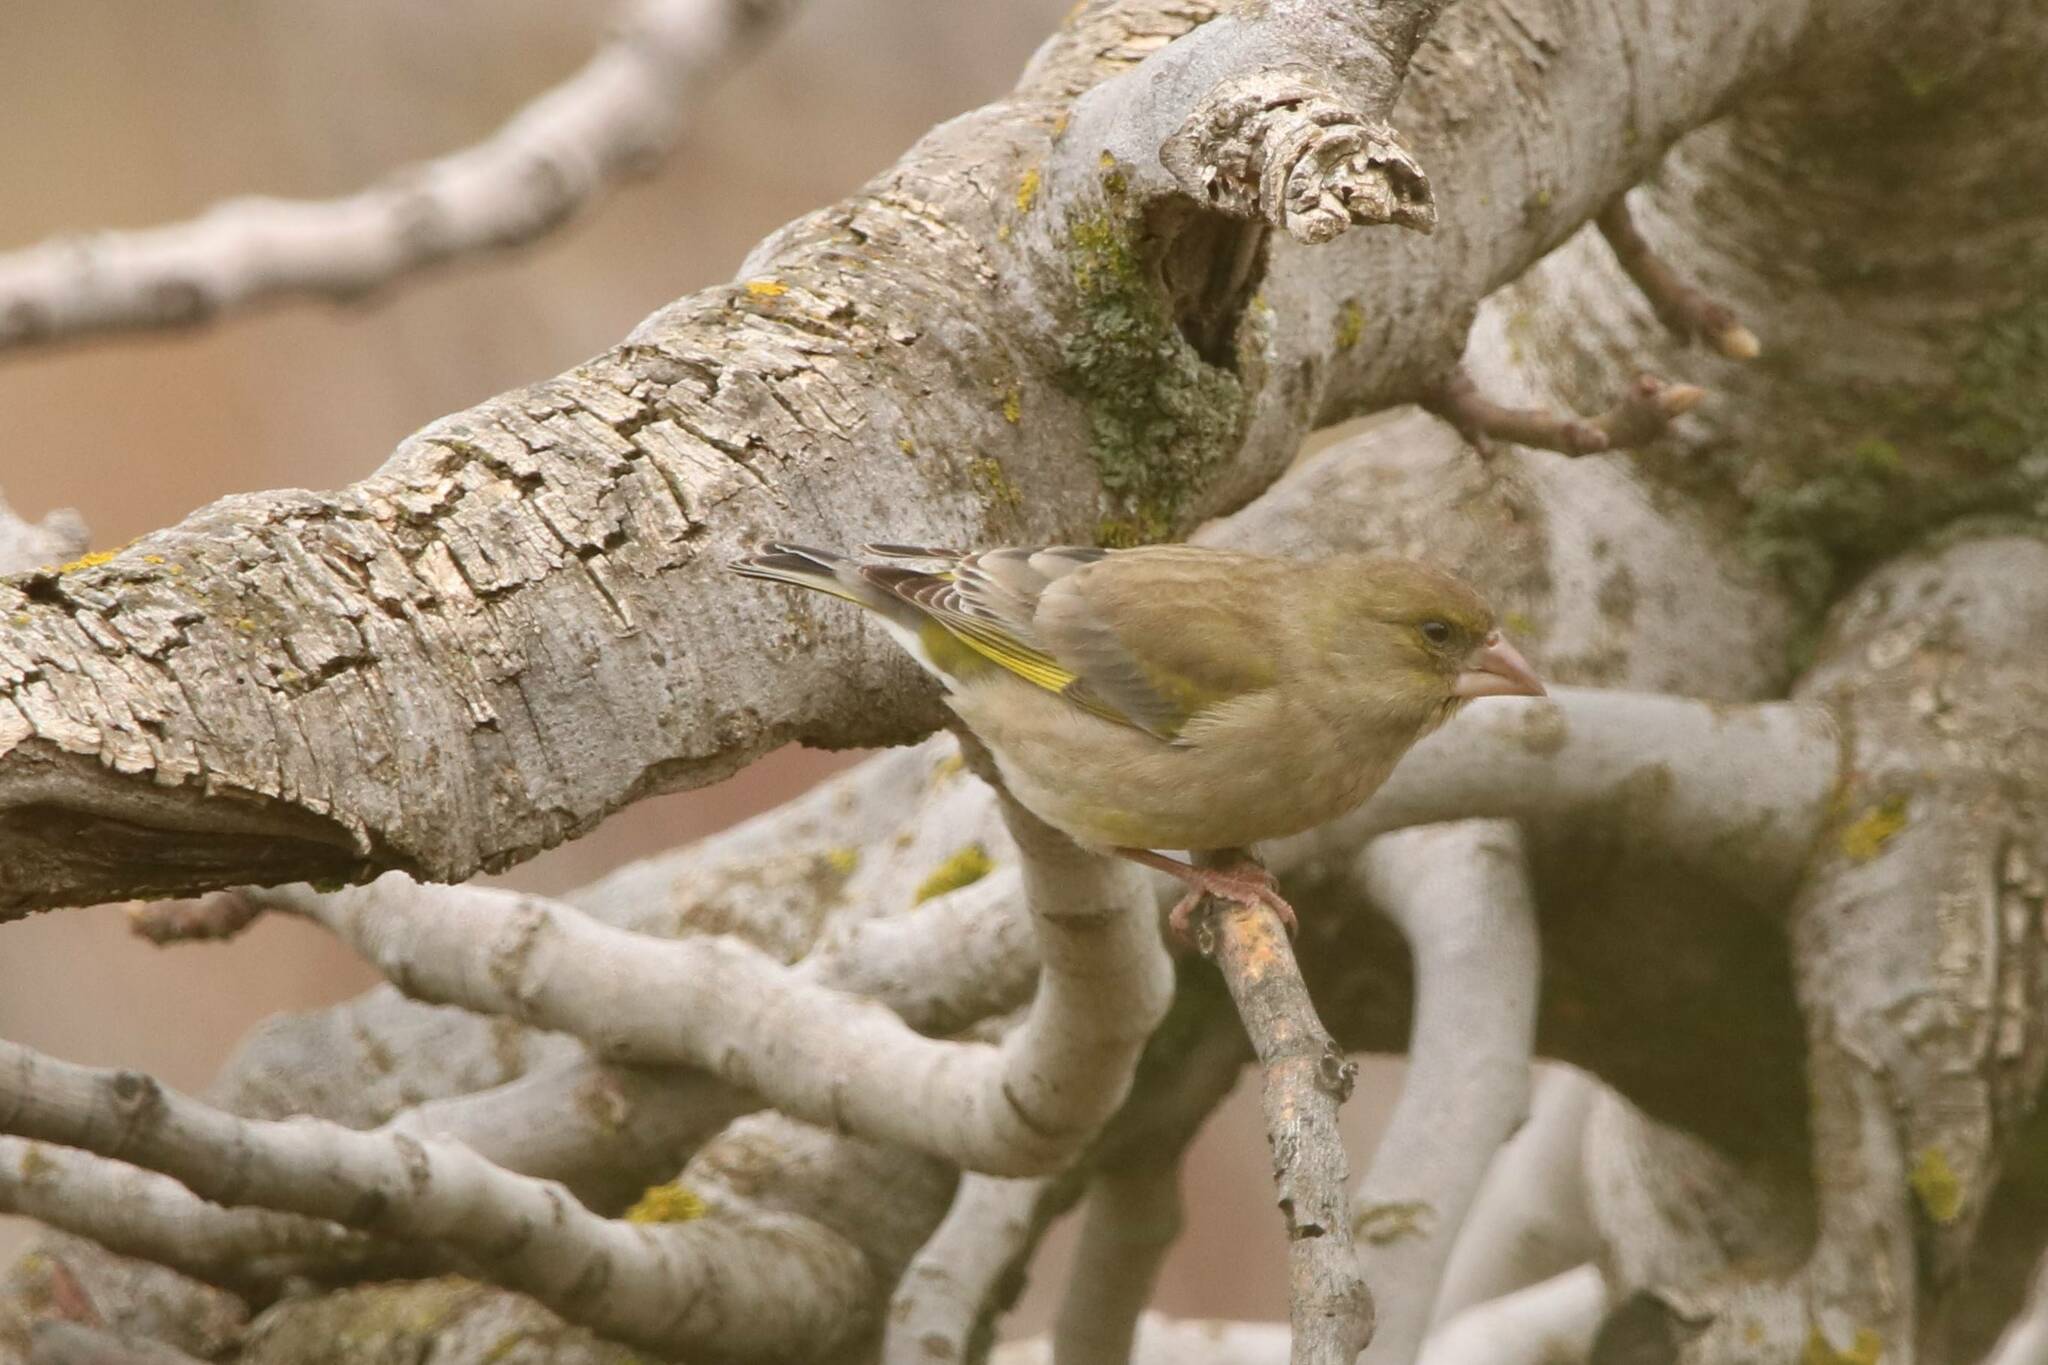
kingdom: Plantae
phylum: Tracheophyta
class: Liliopsida
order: Poales
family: Poaceae
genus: Chloris
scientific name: Chloris chloris
